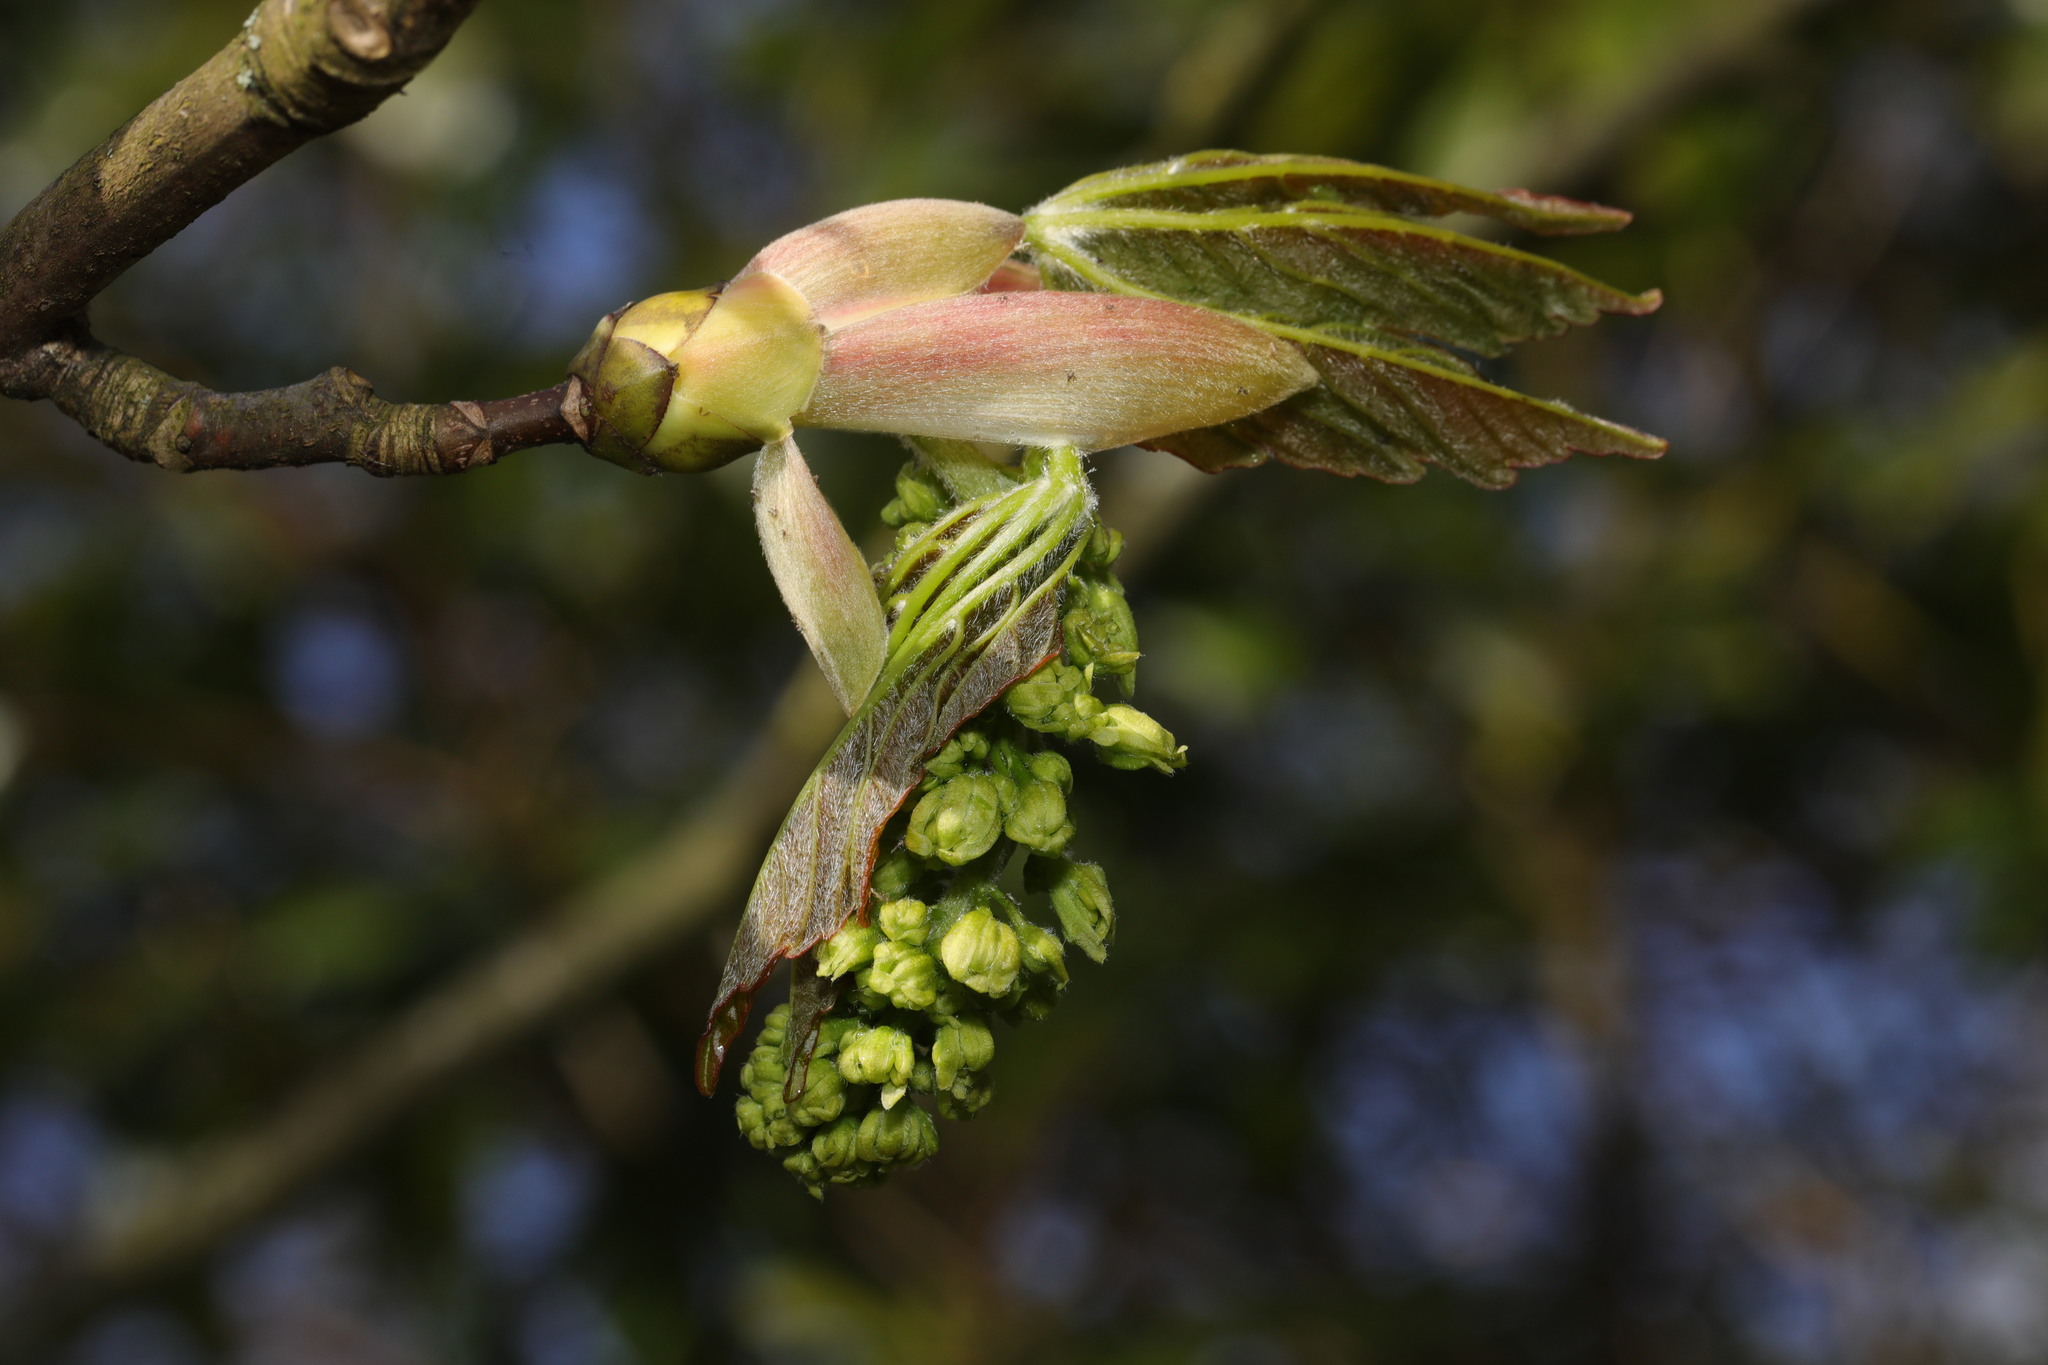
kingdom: Plantae
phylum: Tracheophyta
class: Magnoliopsida
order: Sapindales
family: Sapindaceae
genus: Acer
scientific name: Acer pseudoplatanus
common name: Sycamore
